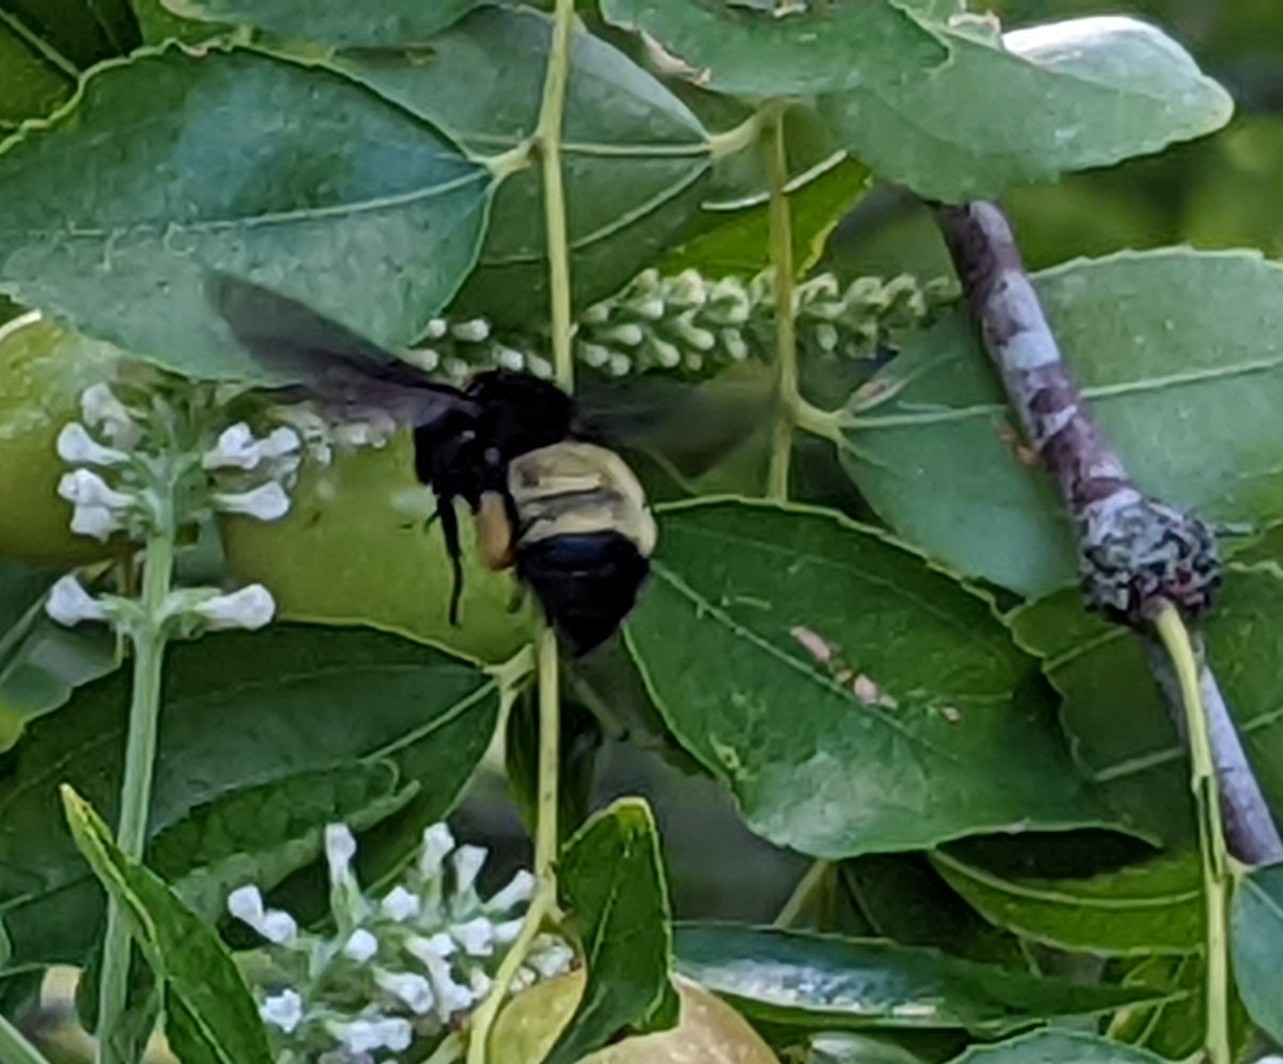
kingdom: Animalia
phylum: Arthropoda
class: Insecta
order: Hymenoptera
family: Apidae
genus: Bombus
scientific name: Bombus pensylvanicus
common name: Bumble bee
